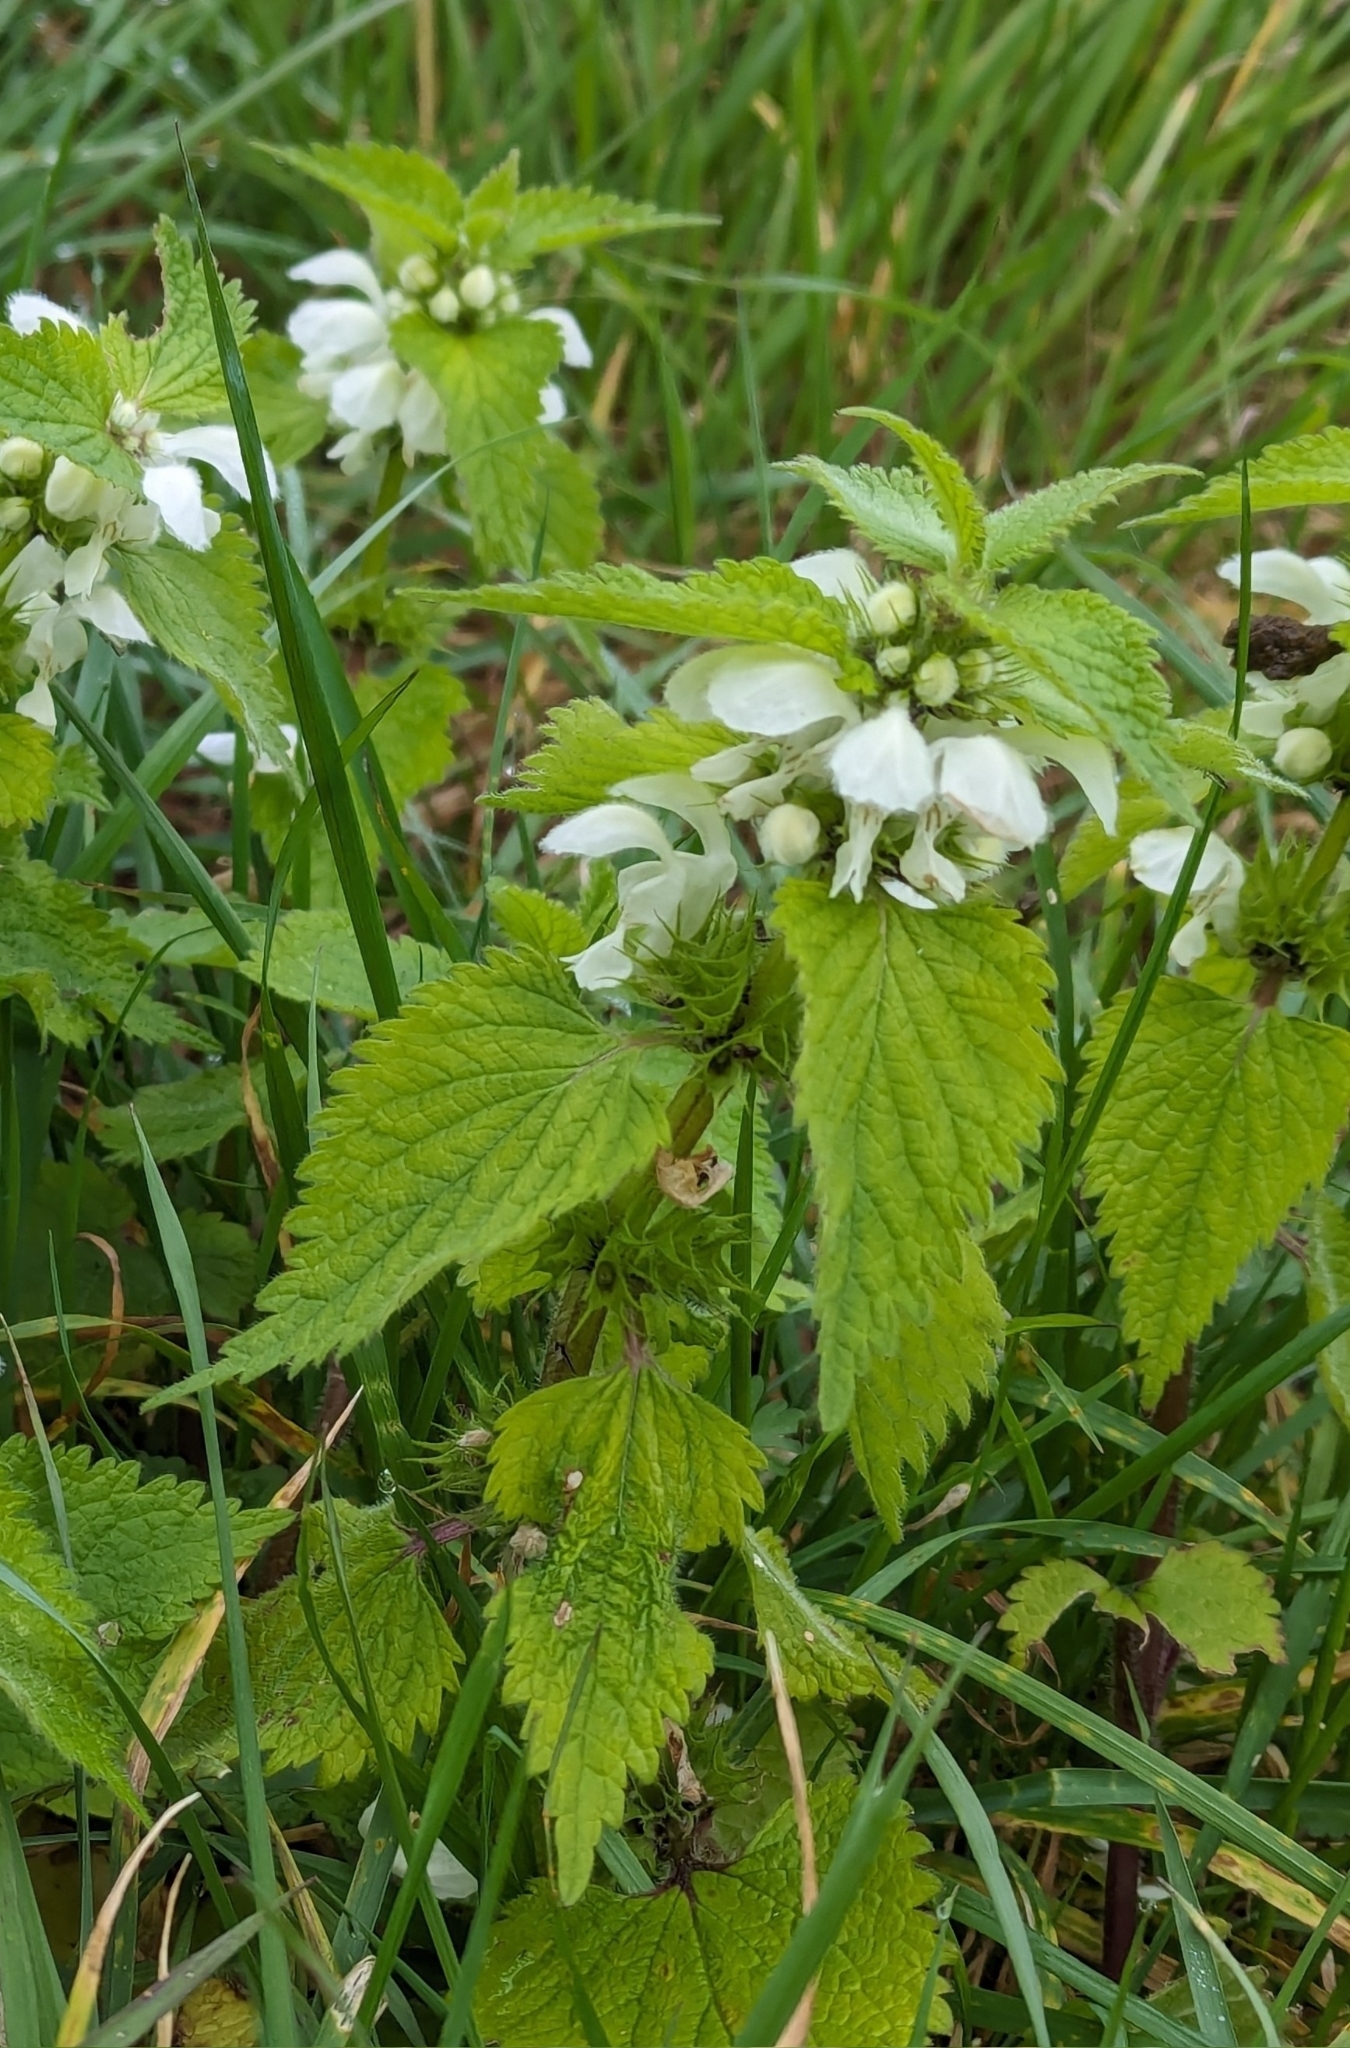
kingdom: Plantae
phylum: Tracheophyta
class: Magnoliopsida
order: Lamiales
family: Lamiaceae
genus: Lamium
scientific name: Lamium album
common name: White dead-nettle
